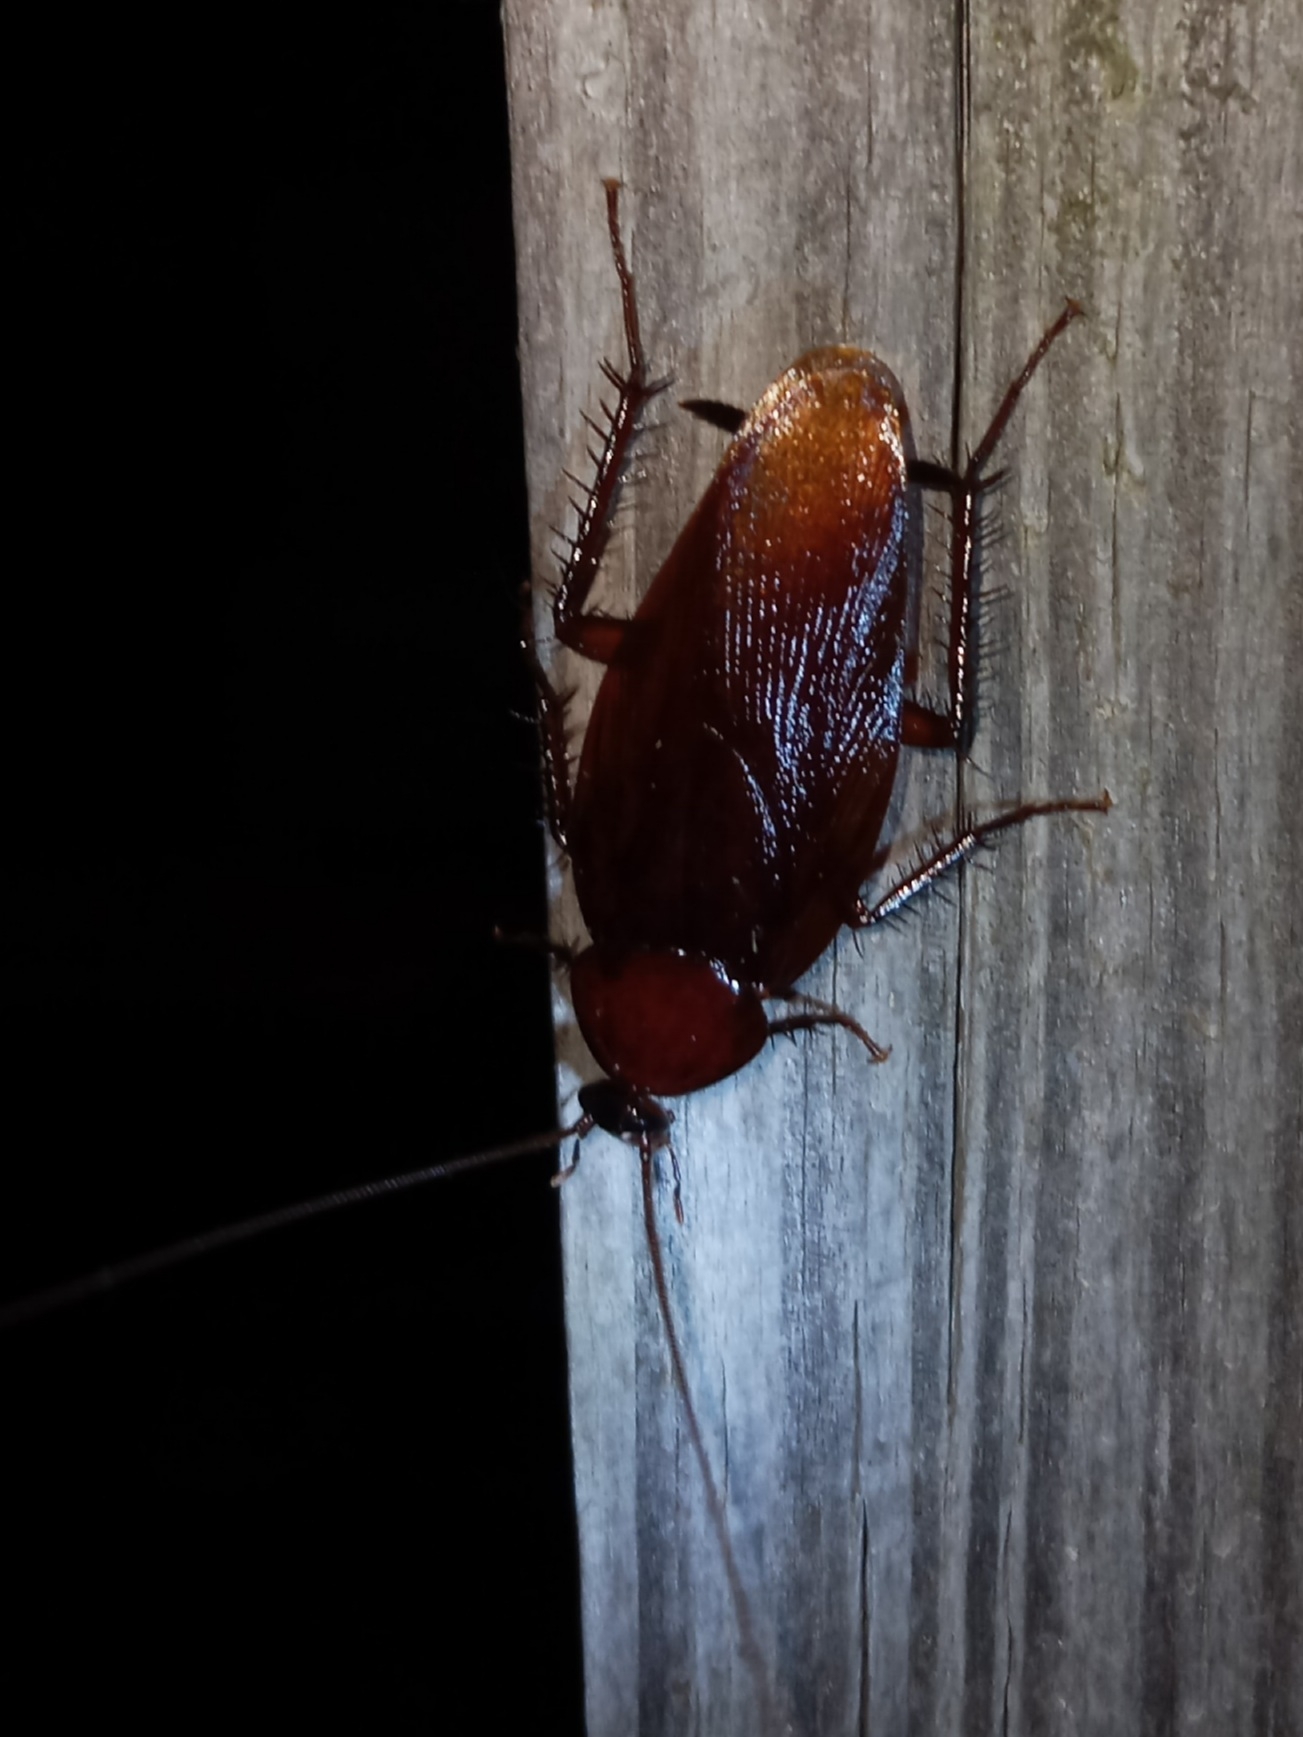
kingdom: Animalia
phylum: Arthropoda
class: Insecta
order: Blattodea
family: Blattidae
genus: Periplaneta
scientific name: Periplaneta fuliginosa
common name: Smokeybrown cockroad
